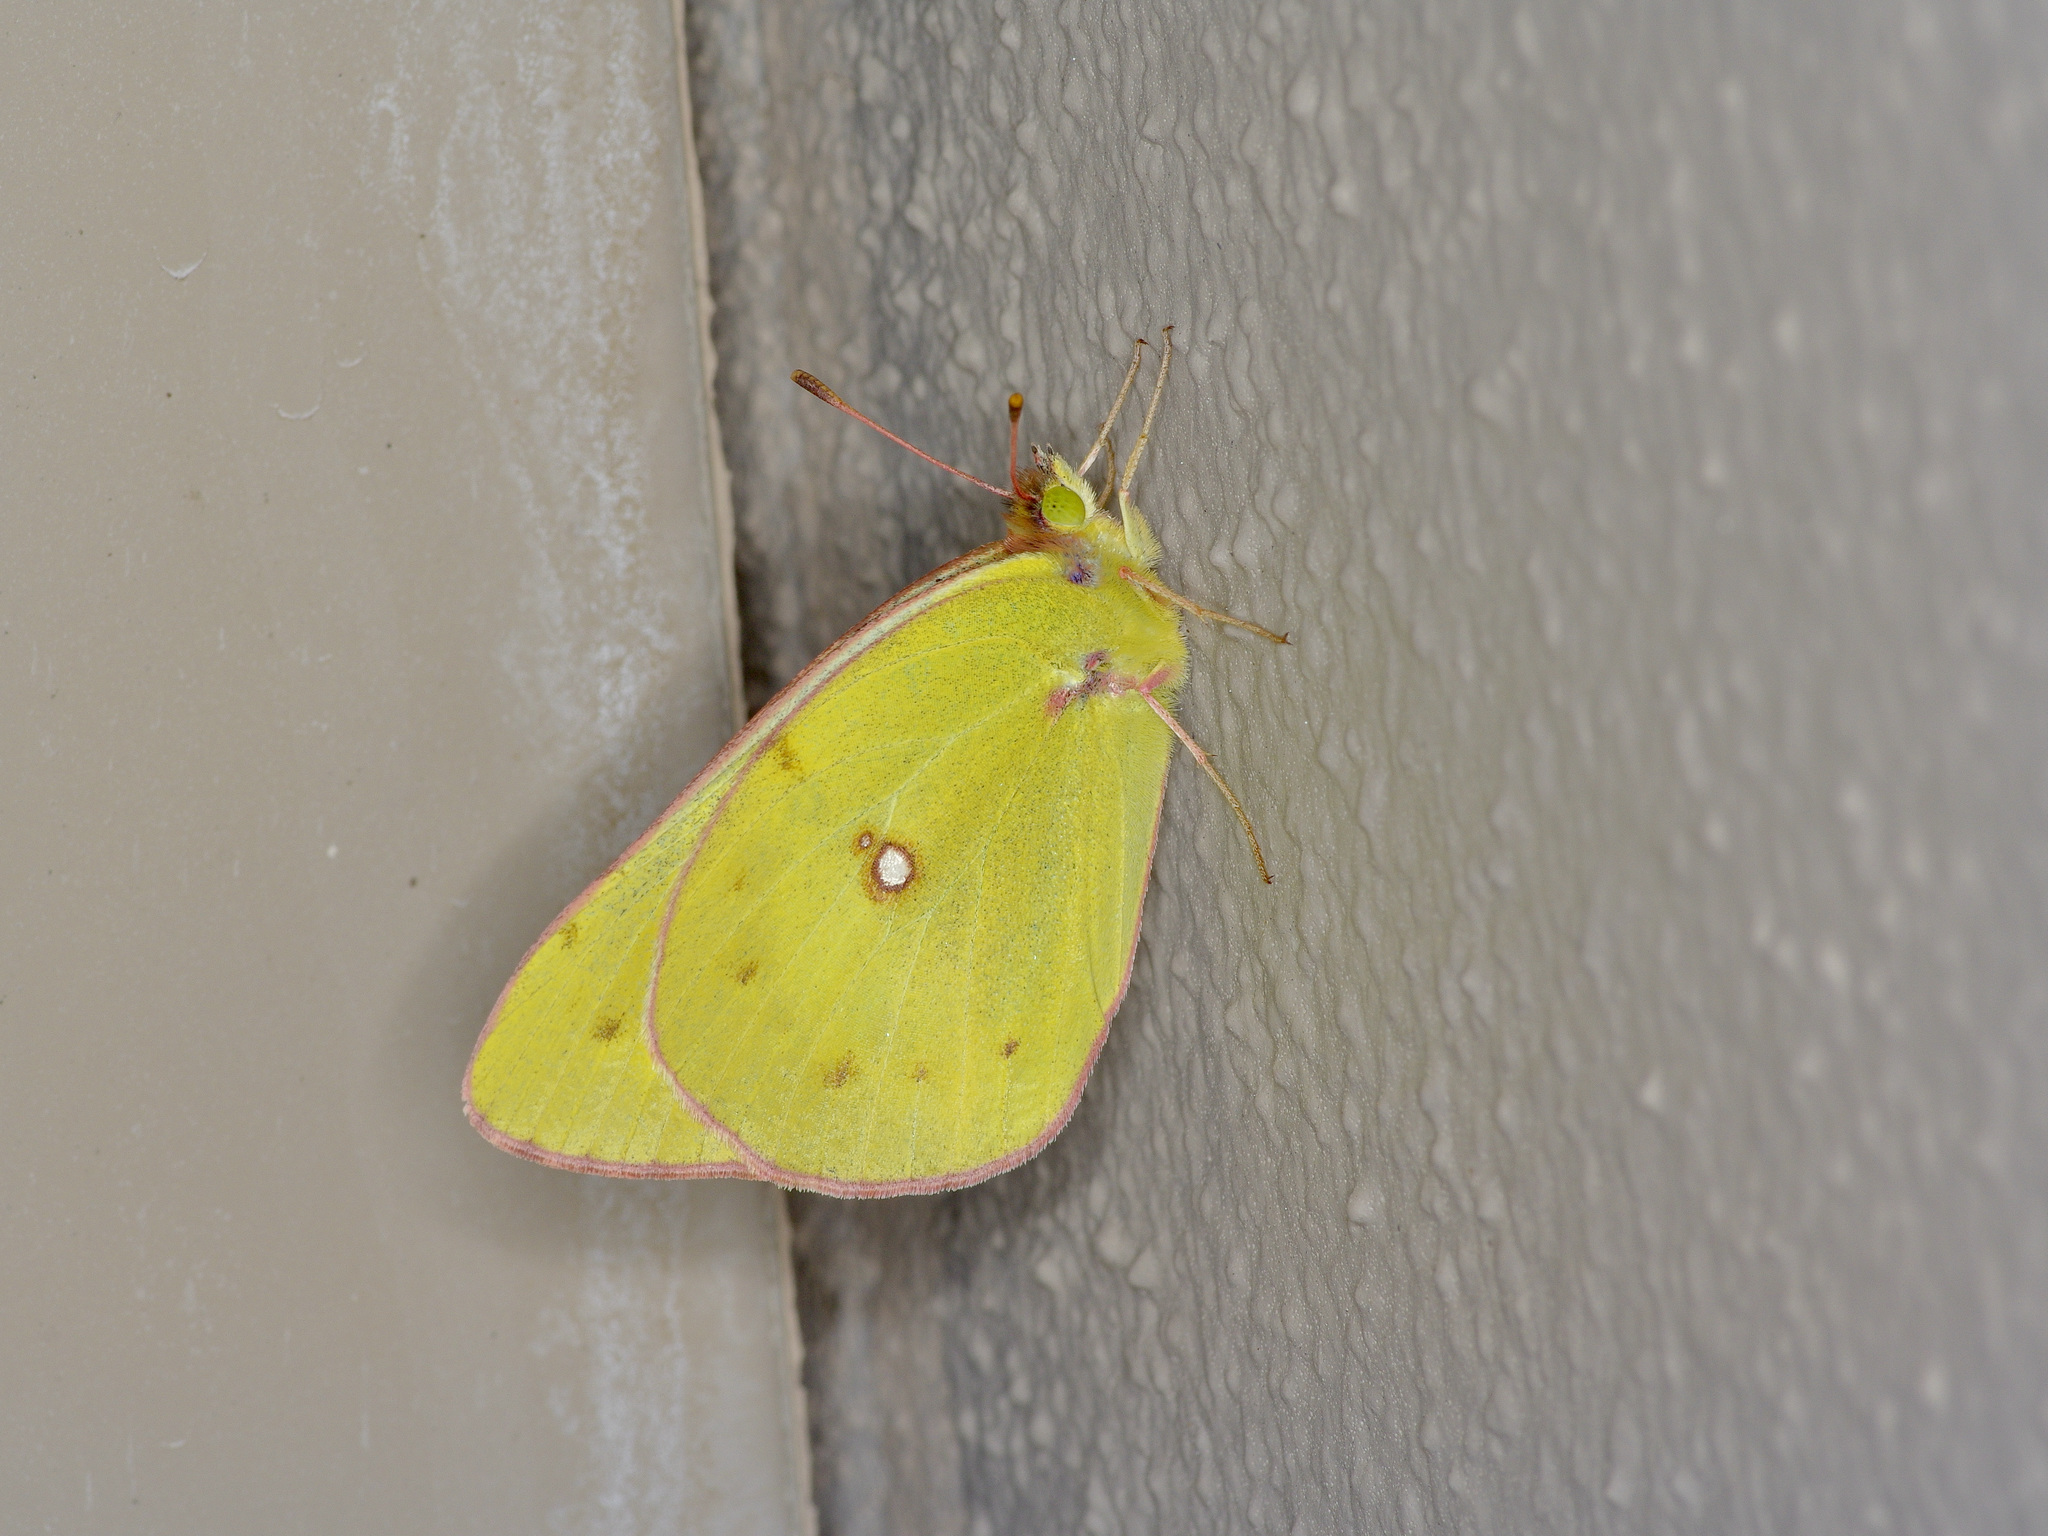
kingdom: Animalia
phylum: Arthropoda
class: Insecta
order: Lepidoptera
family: Pieridae
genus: Colias
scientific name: Colias eurytheme
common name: Alfalfa butterfly
